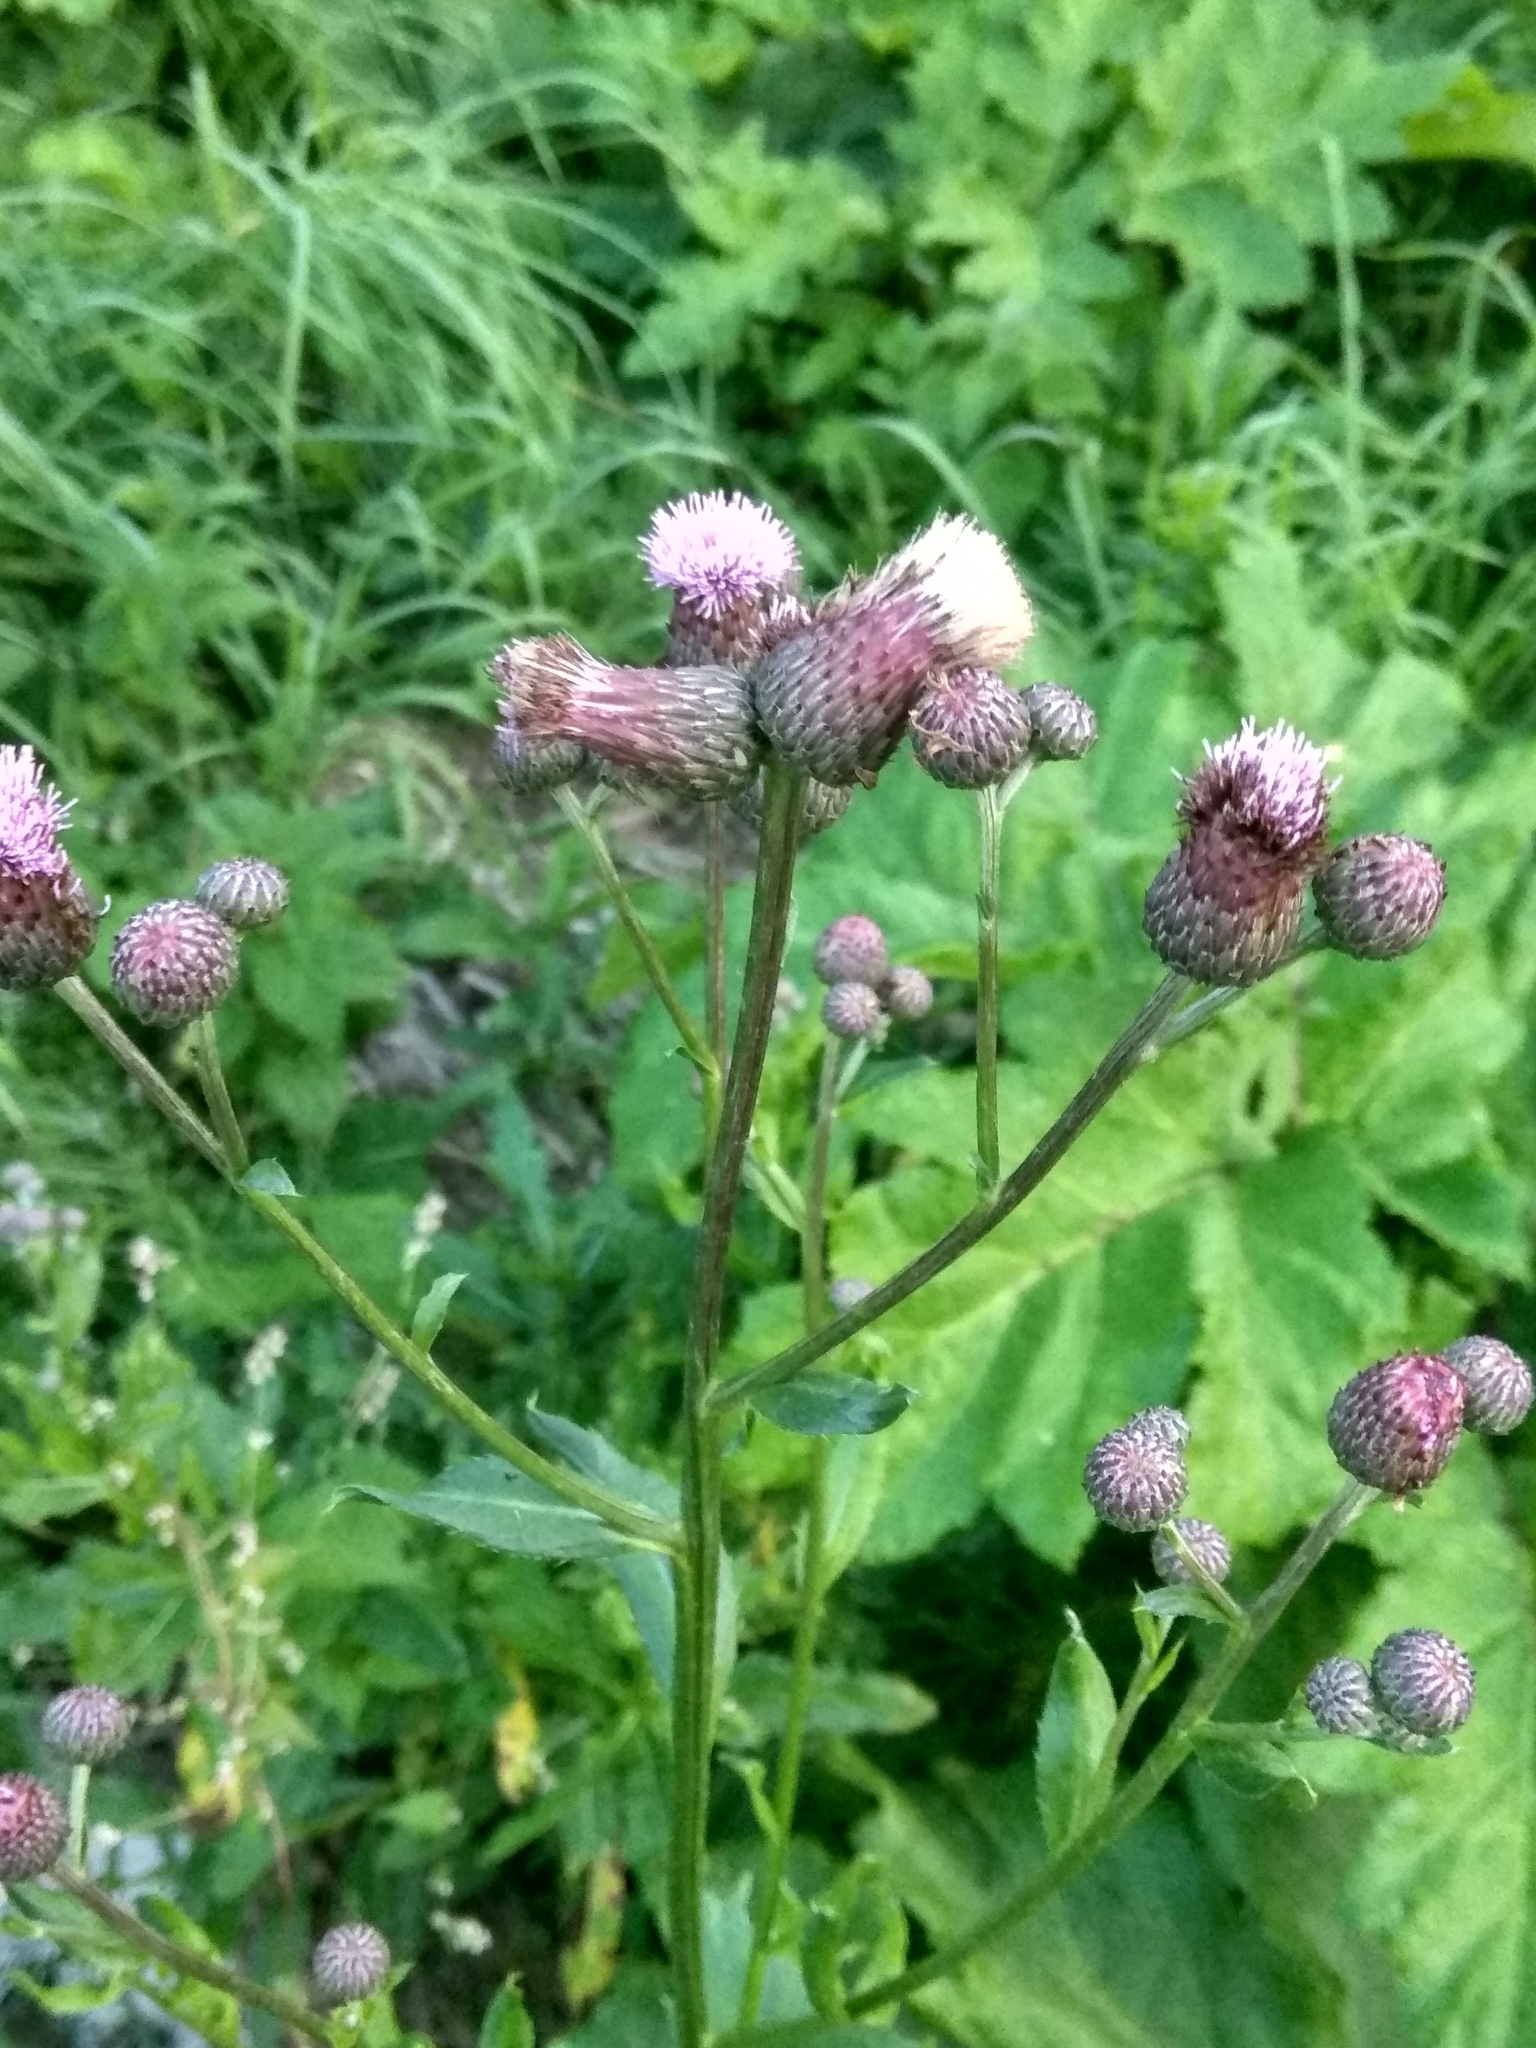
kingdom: Plantae
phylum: Tracheophyta
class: Magnoliopsida
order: Asterales
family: Asteraceae
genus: Cirsium
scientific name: Cirsium arvense
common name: Creeping thistle
